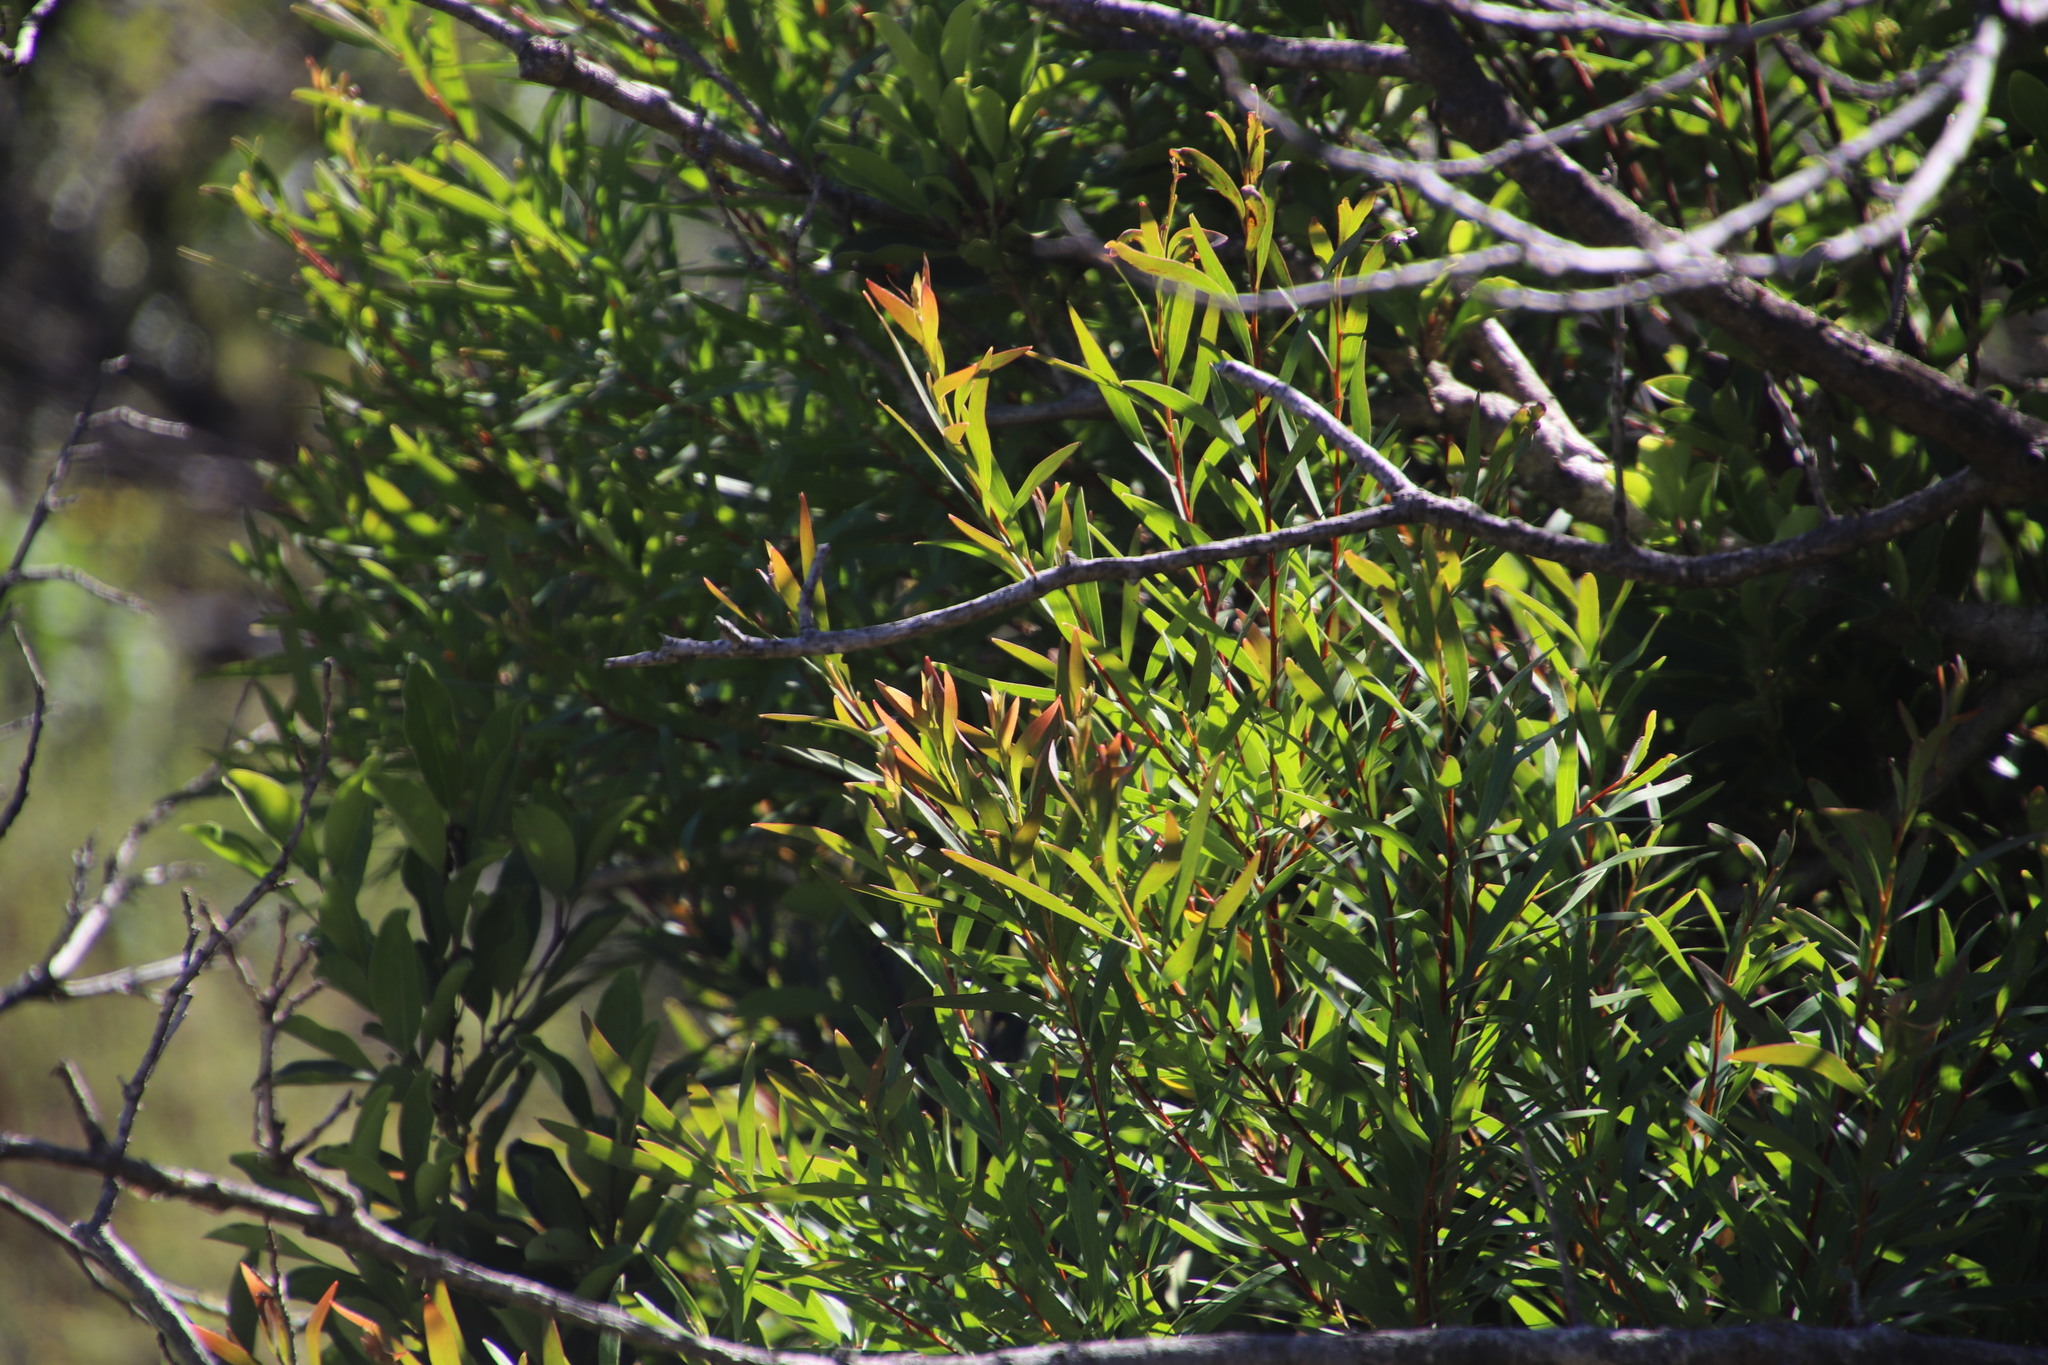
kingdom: Plantae
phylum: Tracheophyta
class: Magnoliopsida
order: Proteales
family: Proteaceae
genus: Hakea
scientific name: Hakea salicifolia
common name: Willow hakea
